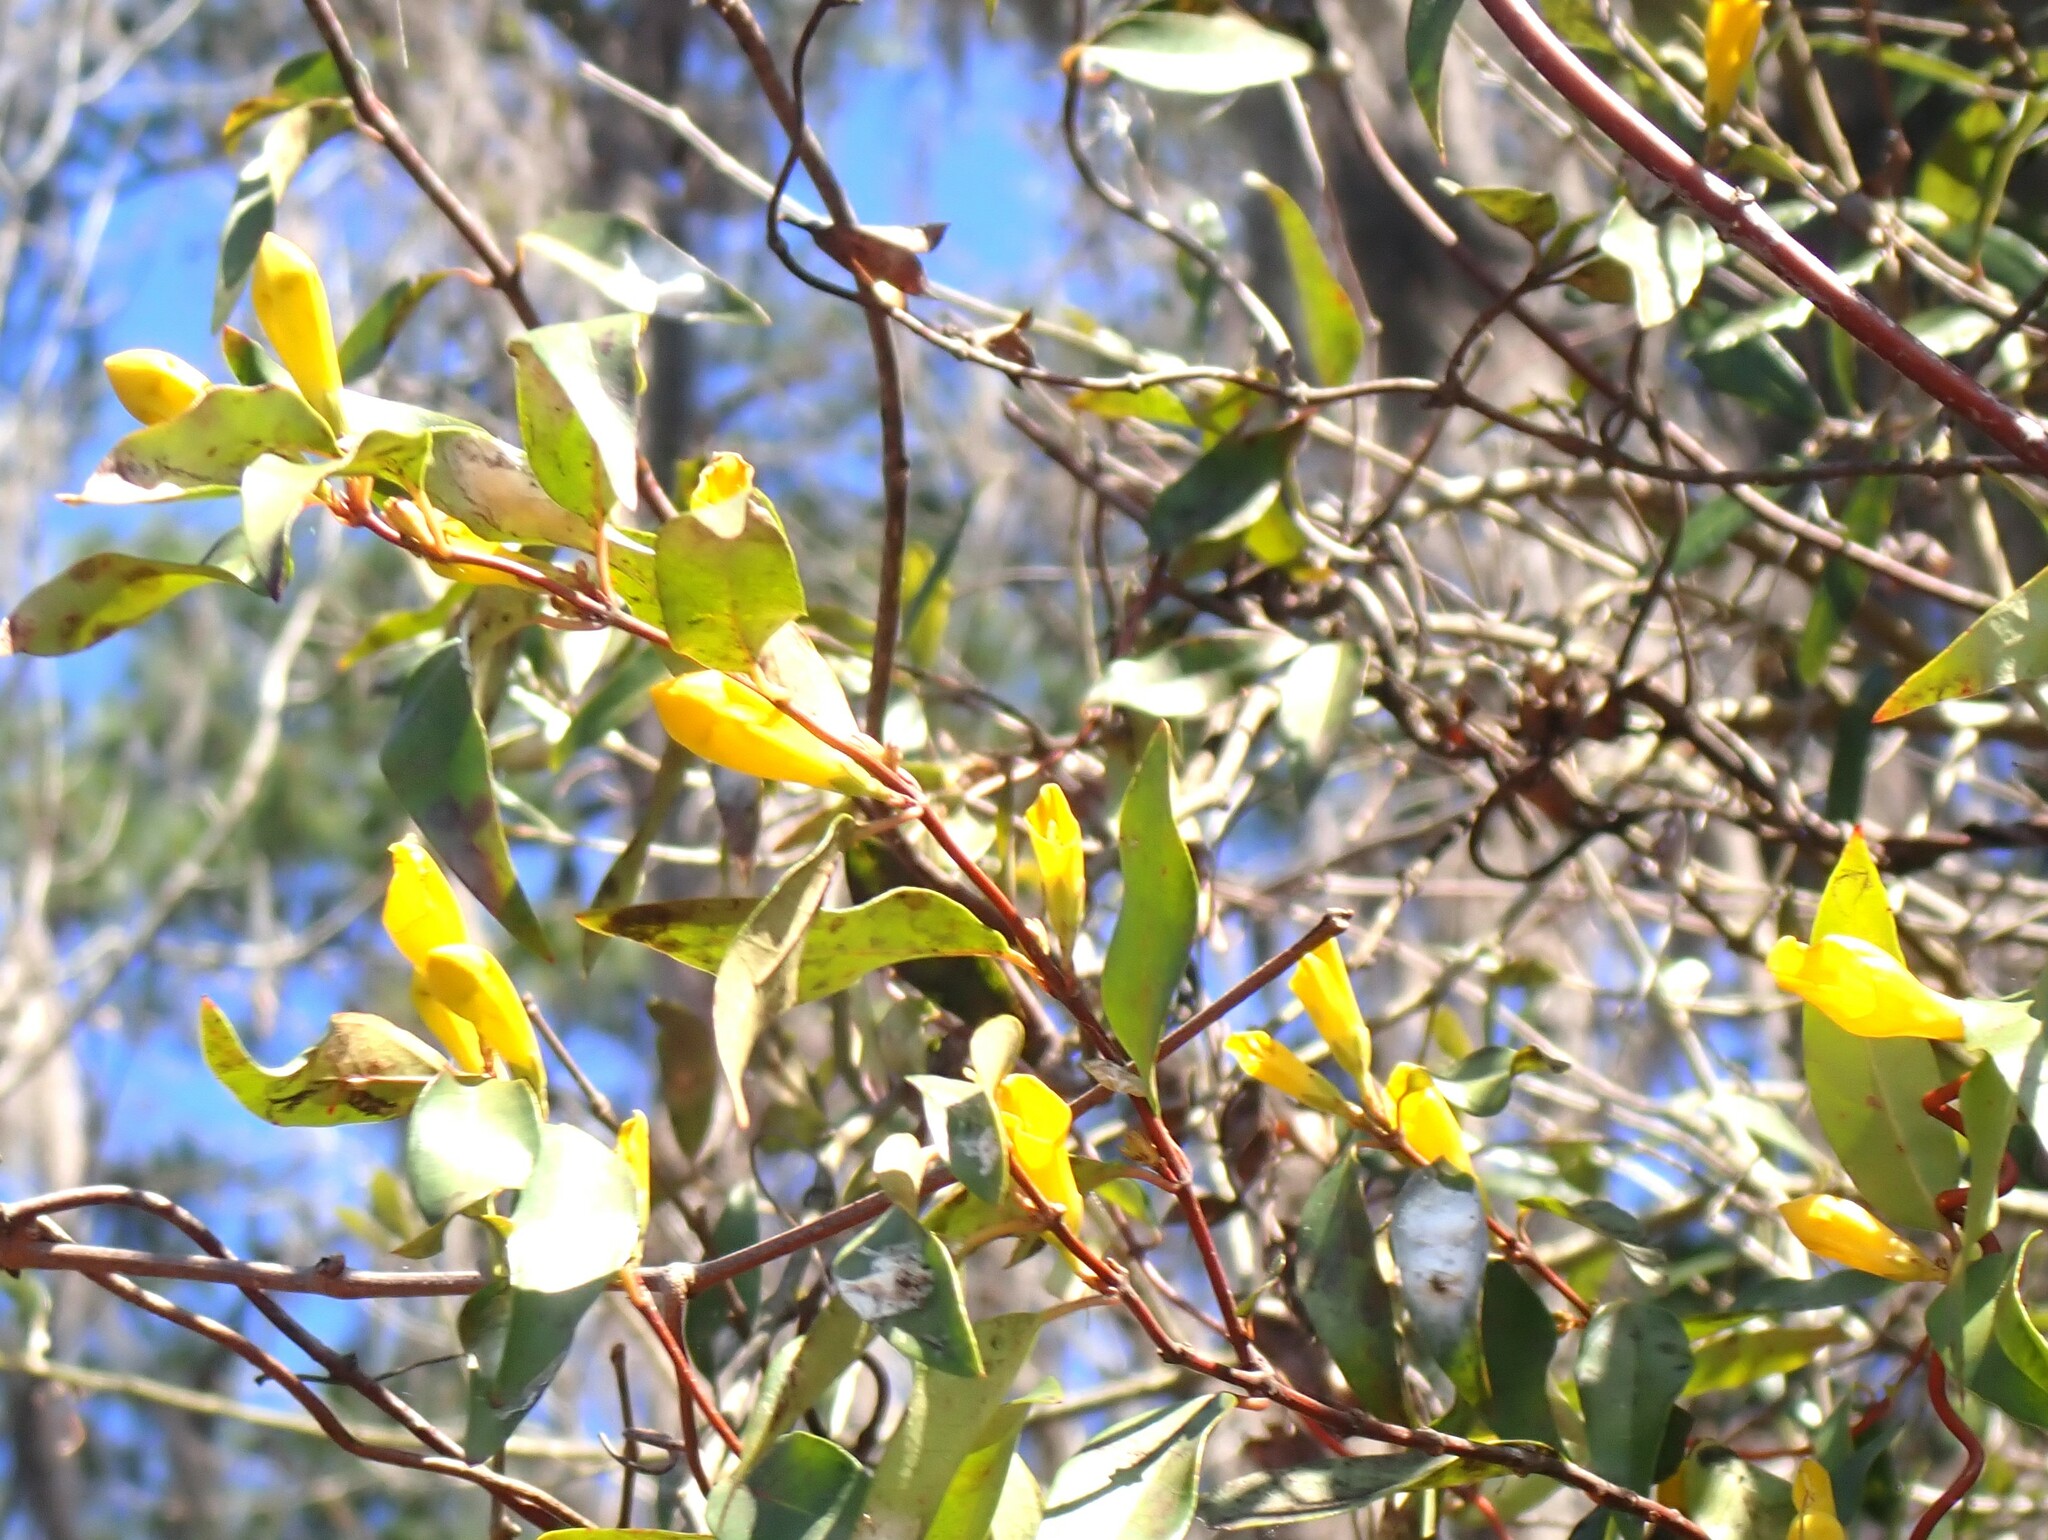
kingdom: Plantae
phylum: Tracheophyta
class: Magnoliopsida
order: Gentianales
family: Gelsemiaceae
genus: Gelsemium
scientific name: Gelsemium sempervirens
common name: Carolina-jasmine
